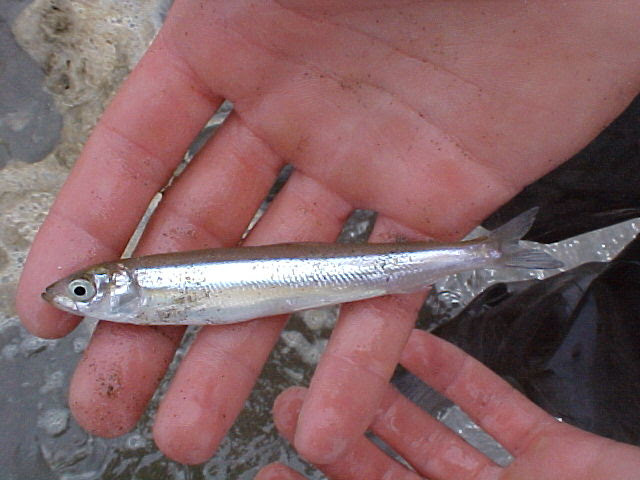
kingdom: Animalia
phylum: Chordata
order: Osmeriformes
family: Osmeridae
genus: Hypomesus
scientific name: Hypomesus pretiosus
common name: Surf smelt
